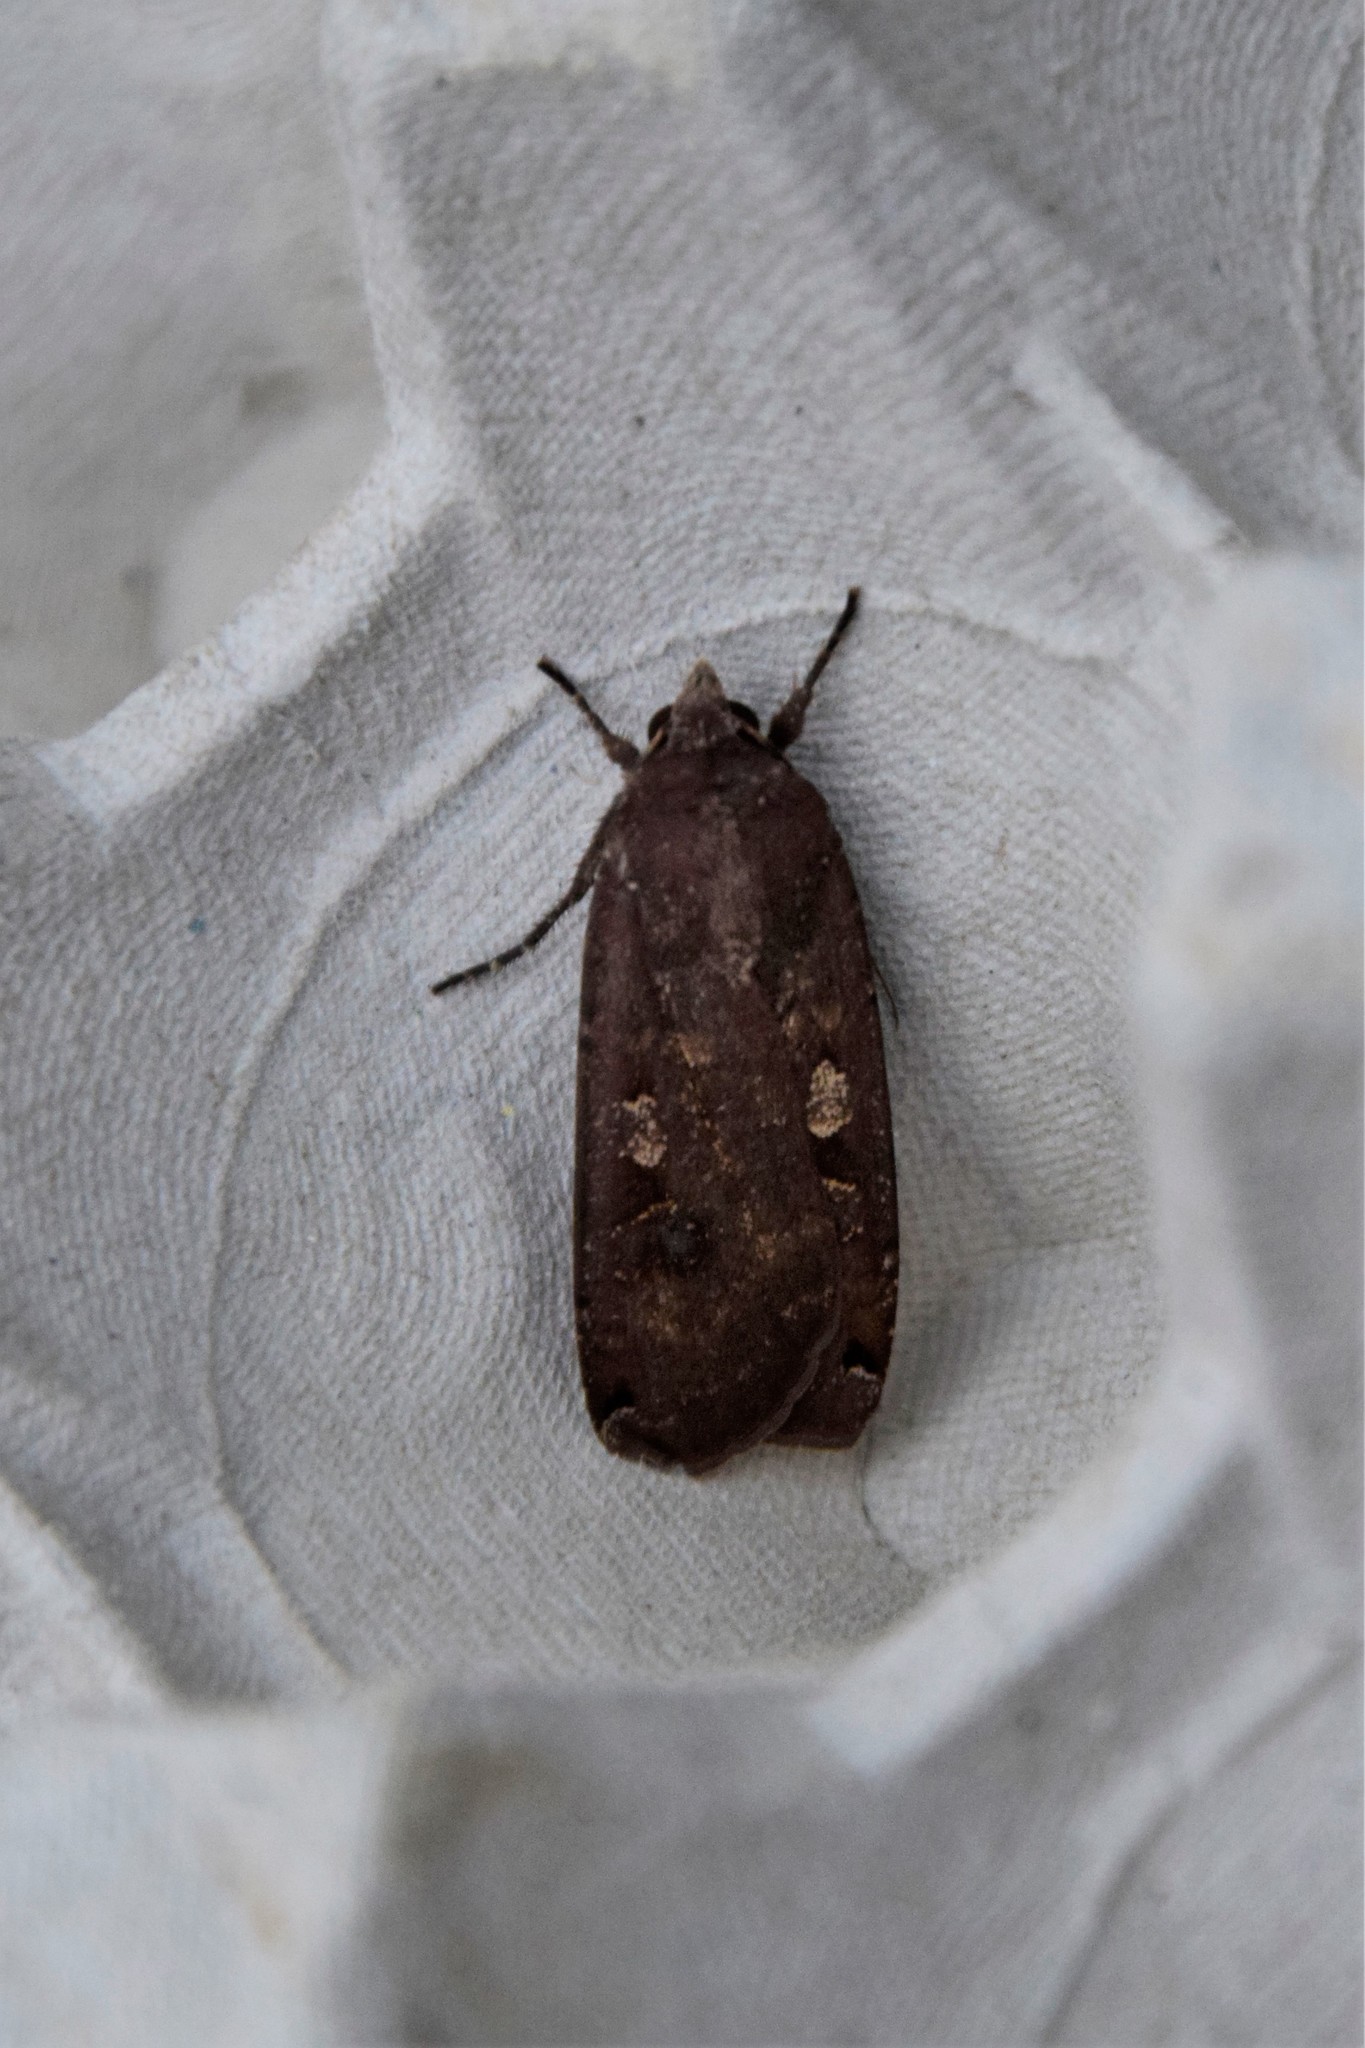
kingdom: Animalia
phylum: Arthropoda
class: Insecta
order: Lepidoptera
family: Noctuidae
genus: Noctua
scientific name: Noctua pronuba
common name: Large yellow underwing
